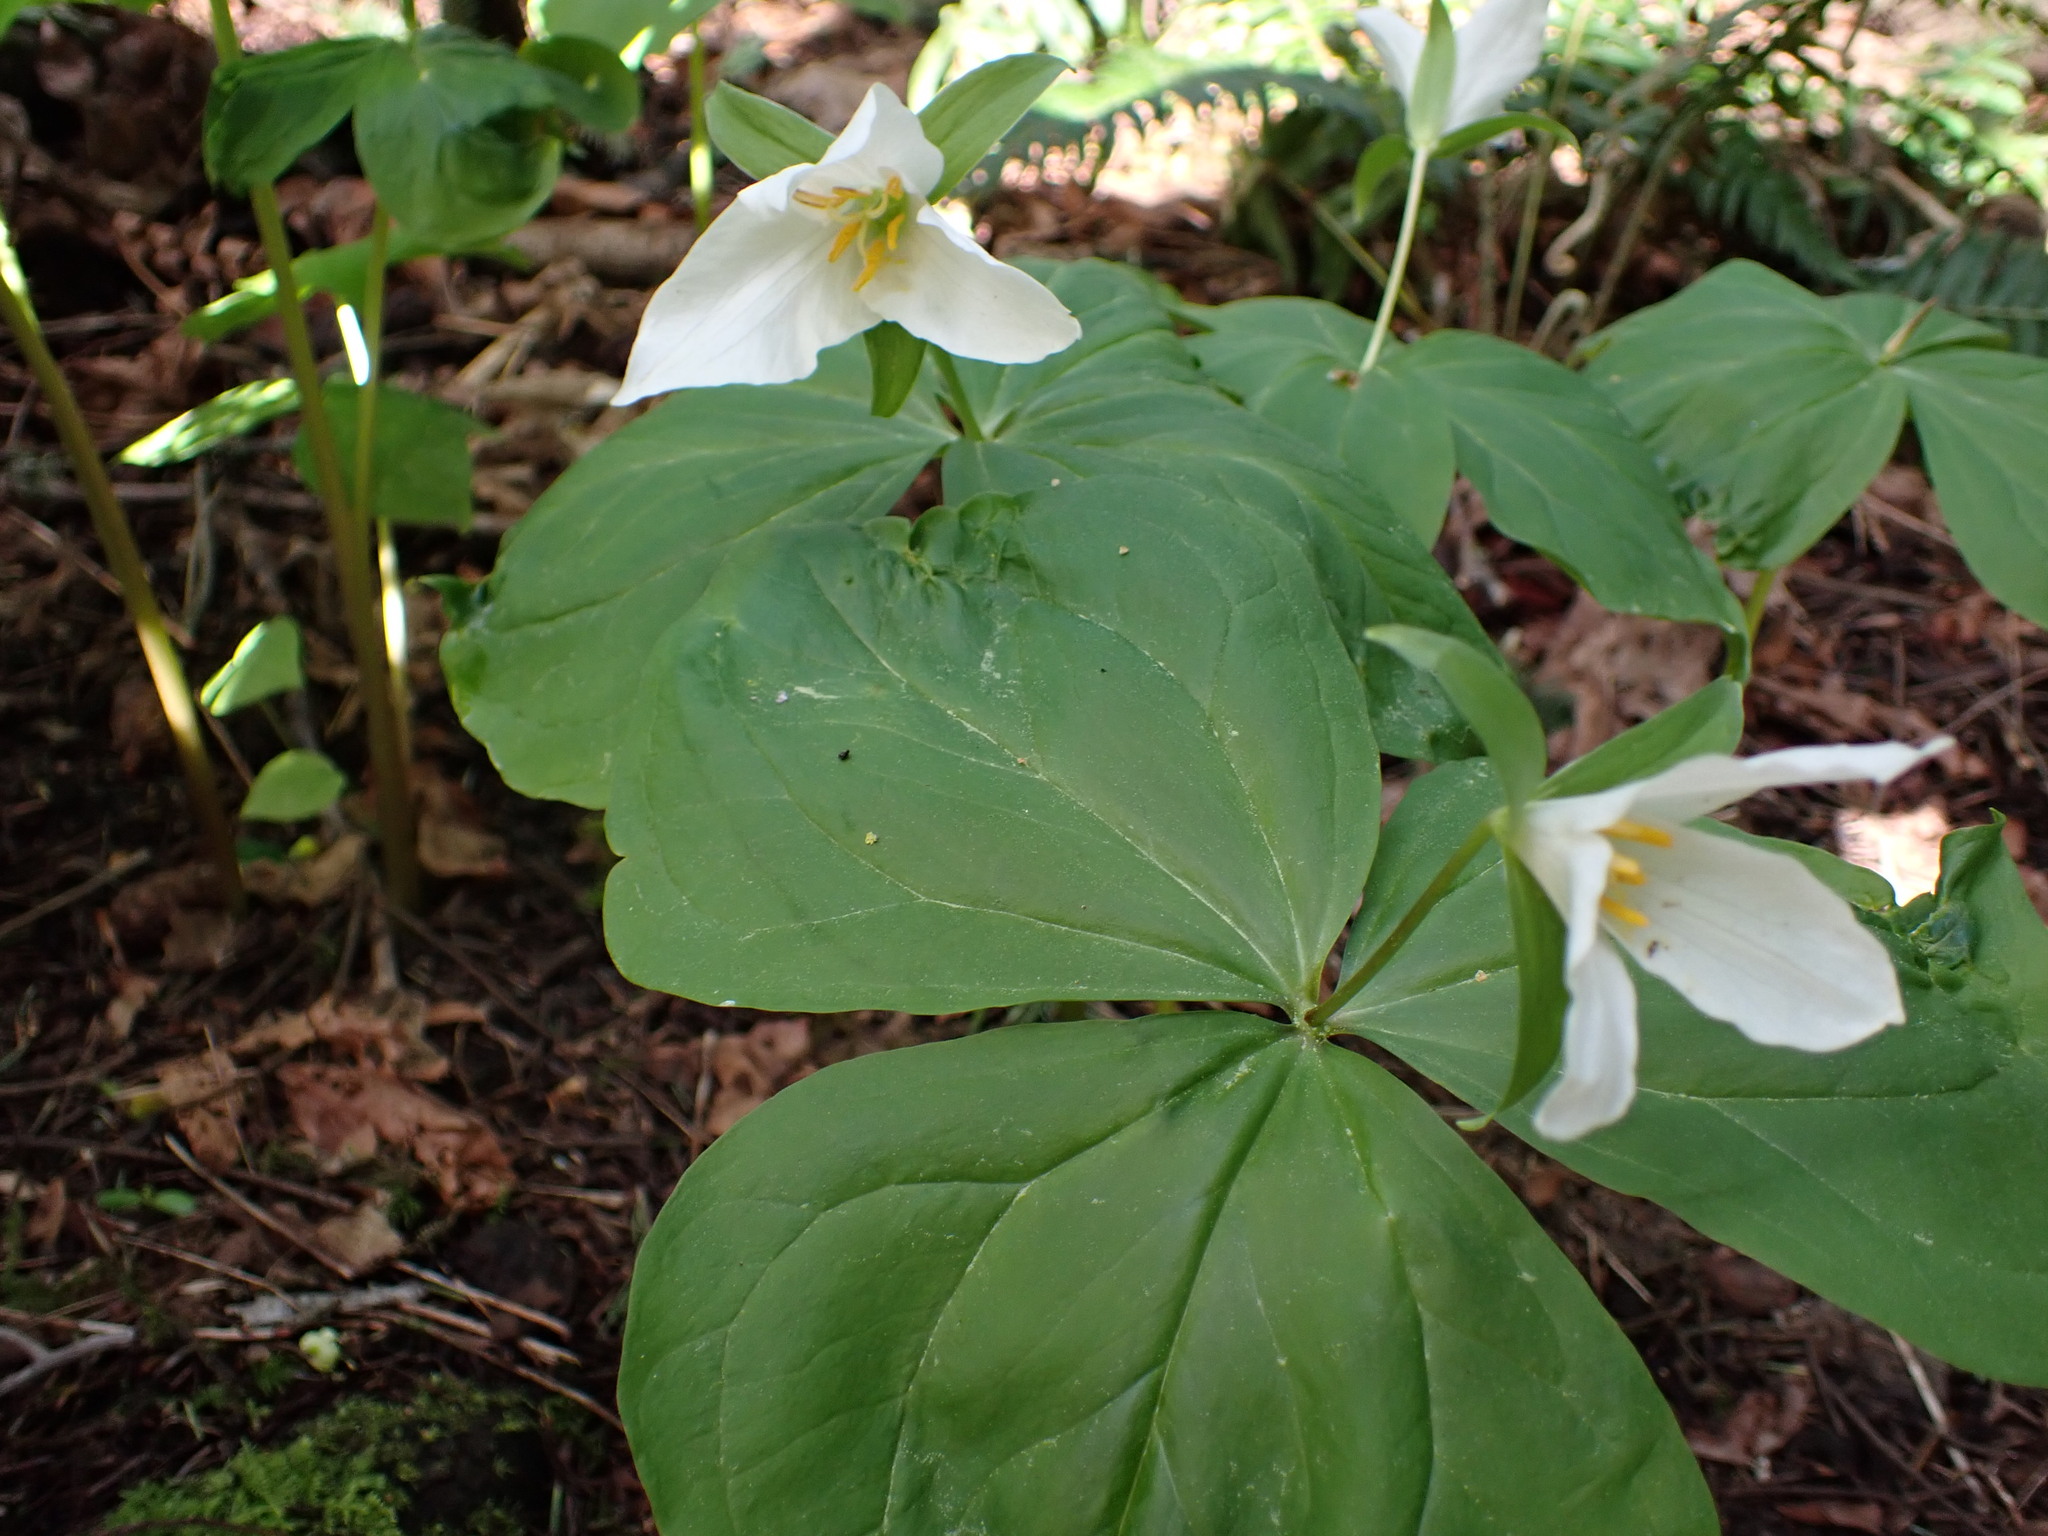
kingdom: Plantae
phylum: Tracheophyta
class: Liliopsida
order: Liliales
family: Melanthiaceae
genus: Trillium
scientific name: Trillium ovatum
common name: Pacific trillium
